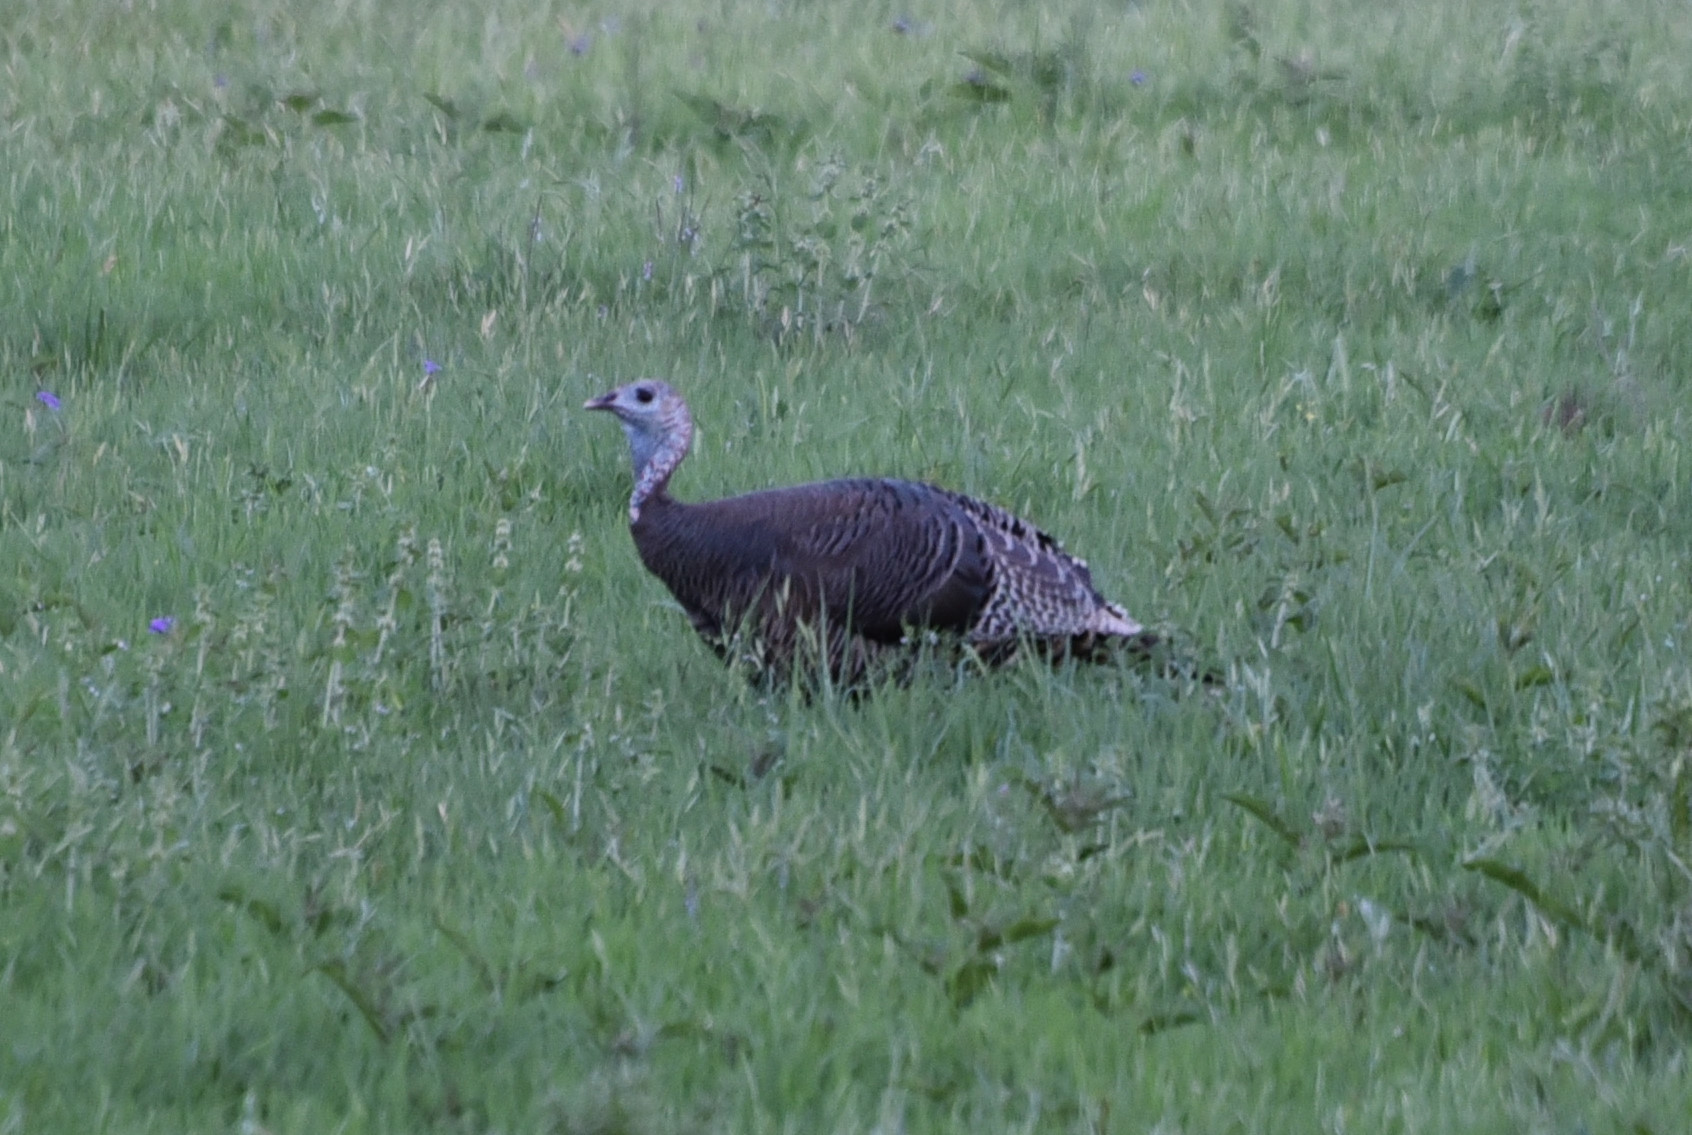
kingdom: Animalia
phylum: Chordata
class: Aves
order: Galliformes
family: Phasianidae
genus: Meleagris
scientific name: Meleagris gallopavo
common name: Wild turkey
